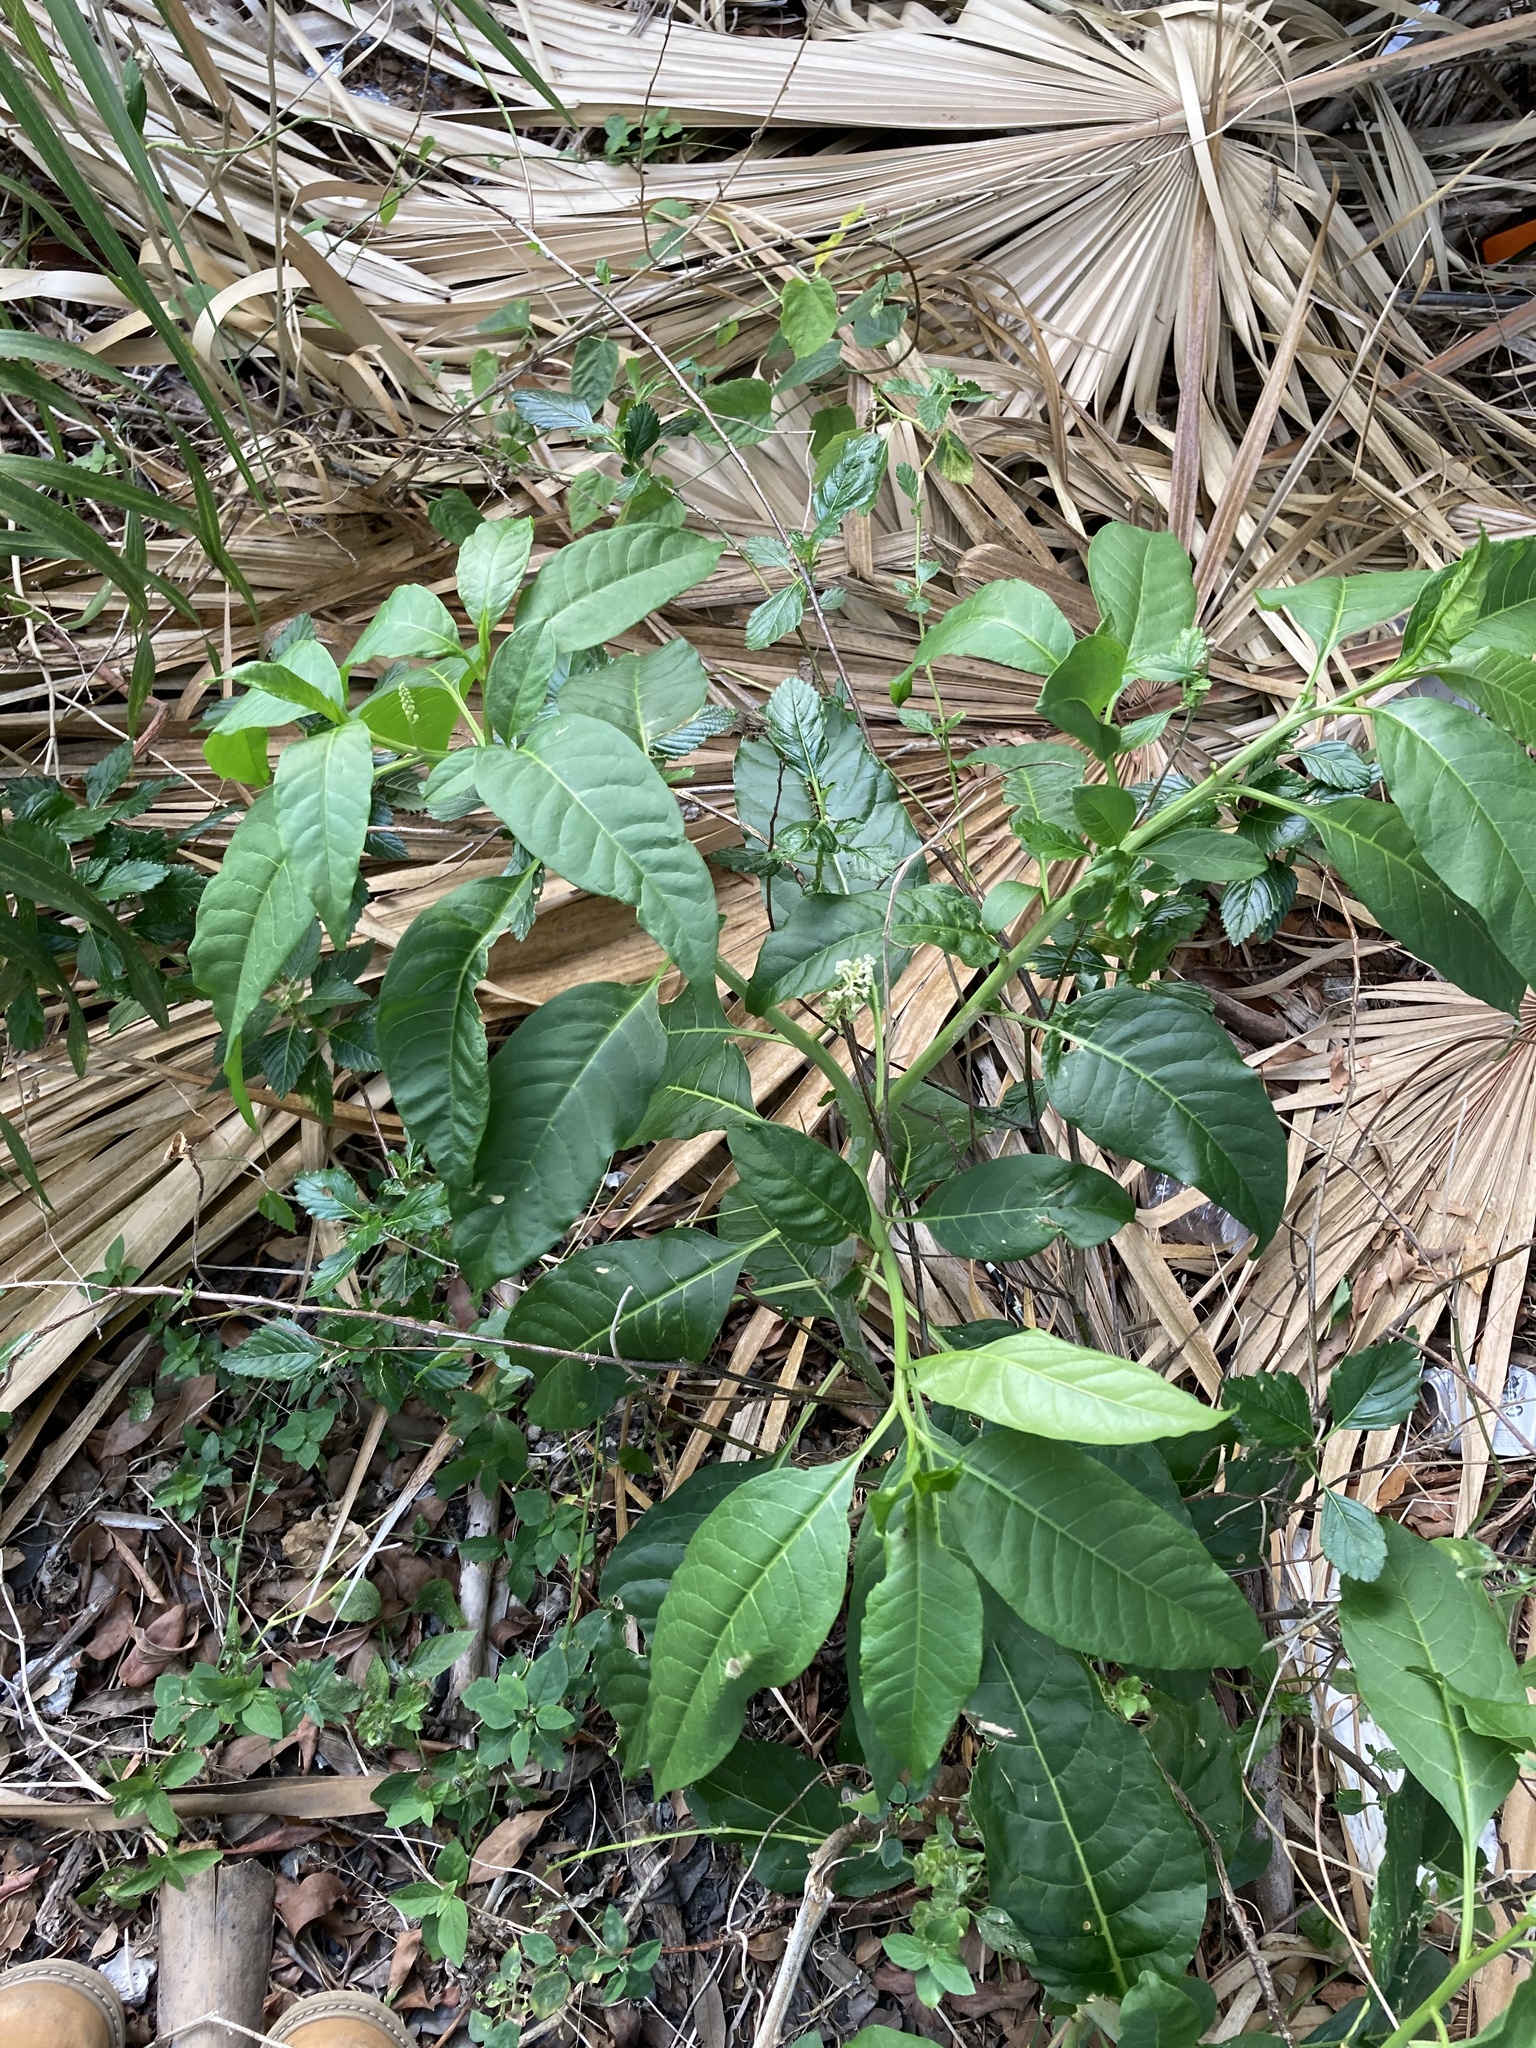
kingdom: Plantae
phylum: Tracheophyta
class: Magnoliopsida
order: Caryophyllales
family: Phytolaccaceae
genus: Phytolacca
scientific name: Phytolacca americana
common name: American pokeweed
